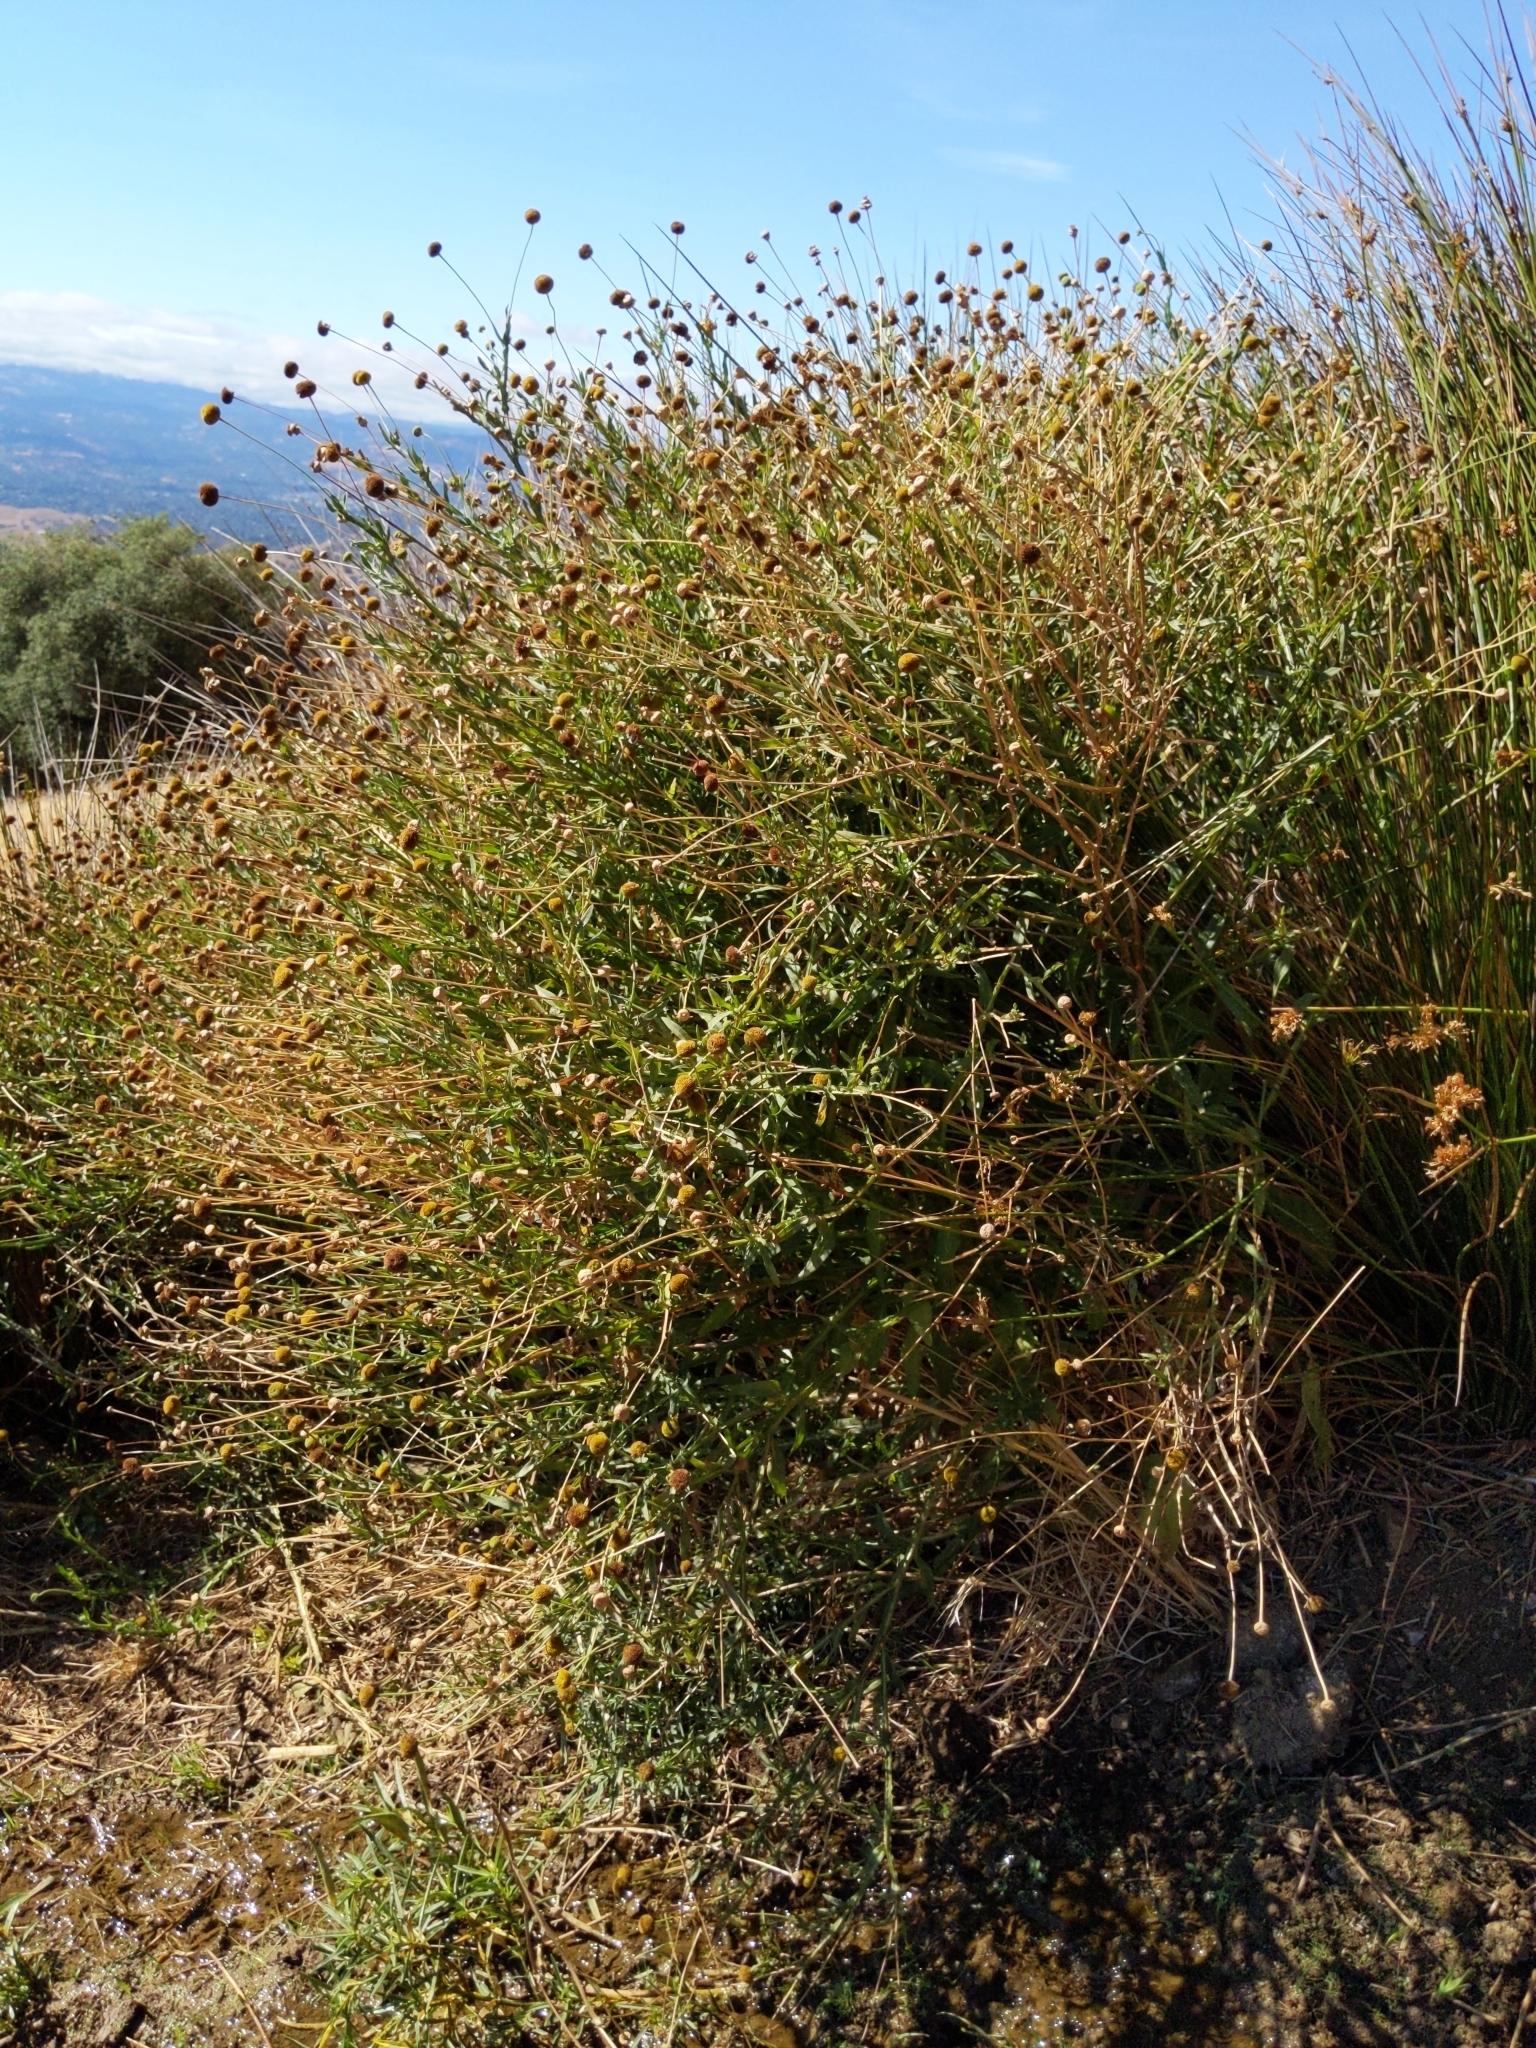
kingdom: Plantae
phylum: Tracheophyta
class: Magnoliopsida
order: Asterales
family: Asteraceae
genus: Helenium
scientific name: Helenium puberulum
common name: Sneezewort
